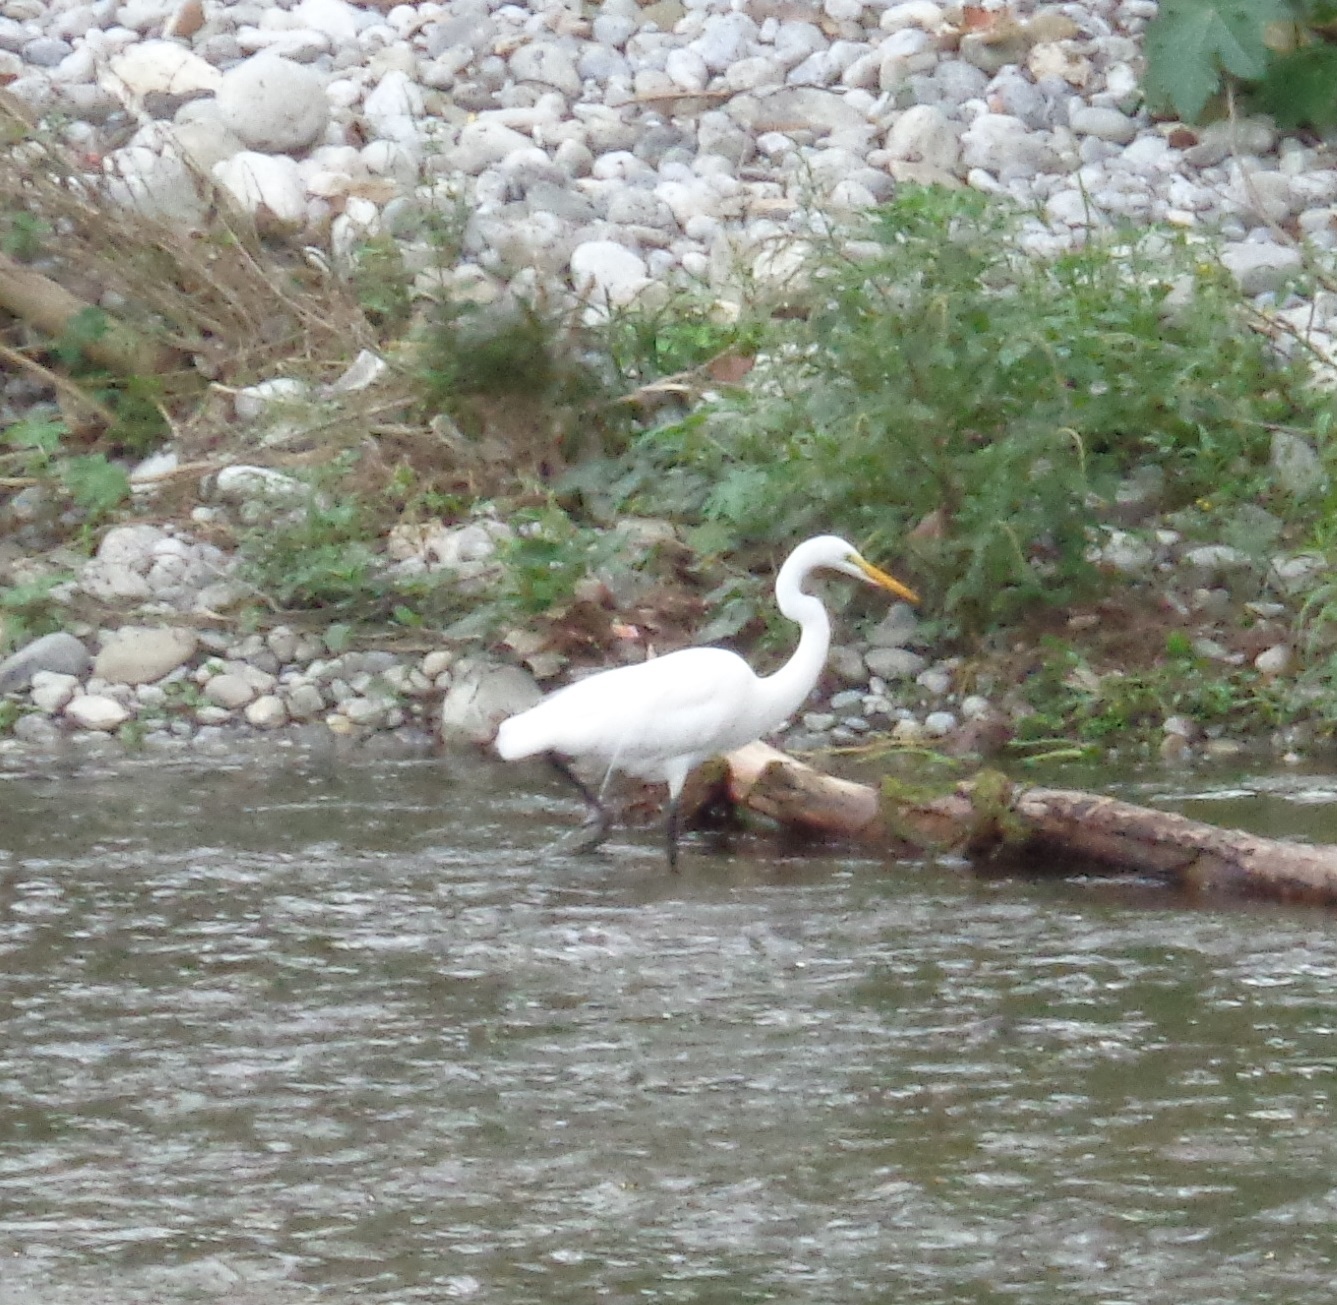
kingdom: Animalia
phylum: Chordata
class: Aves
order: Pelecaniformes
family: Ardeidae
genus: Ardea
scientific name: Ardea alba
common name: Great egret
